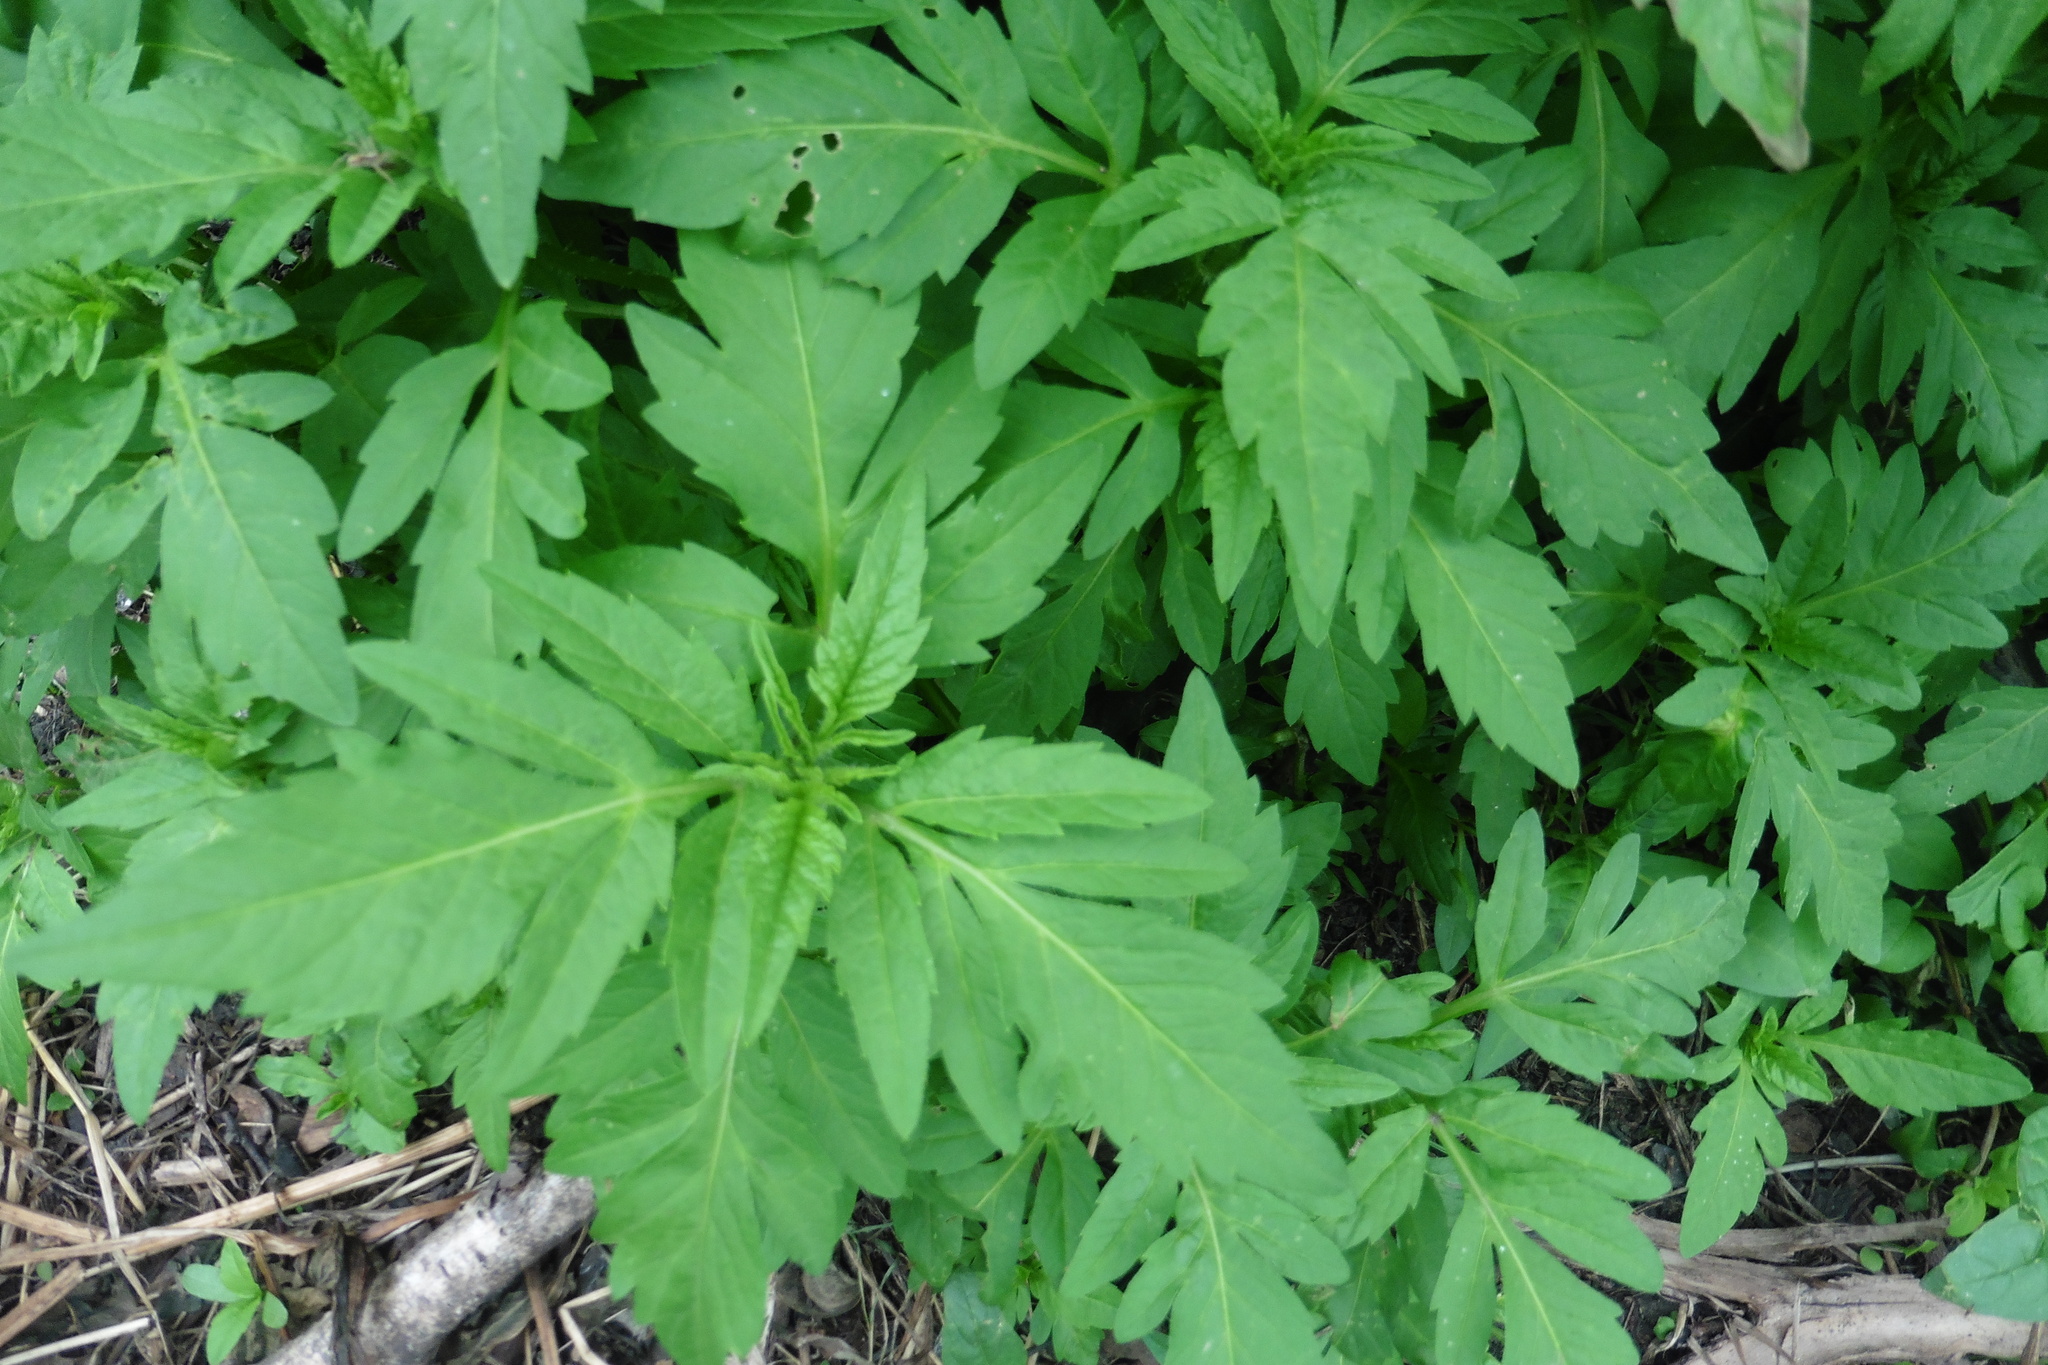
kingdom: Plantae
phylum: Tracheophyta
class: Magnoliopsida
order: Asterales
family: Asteraceae
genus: Bidens
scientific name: Bidens tripartita
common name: Trifid bur-marigold
